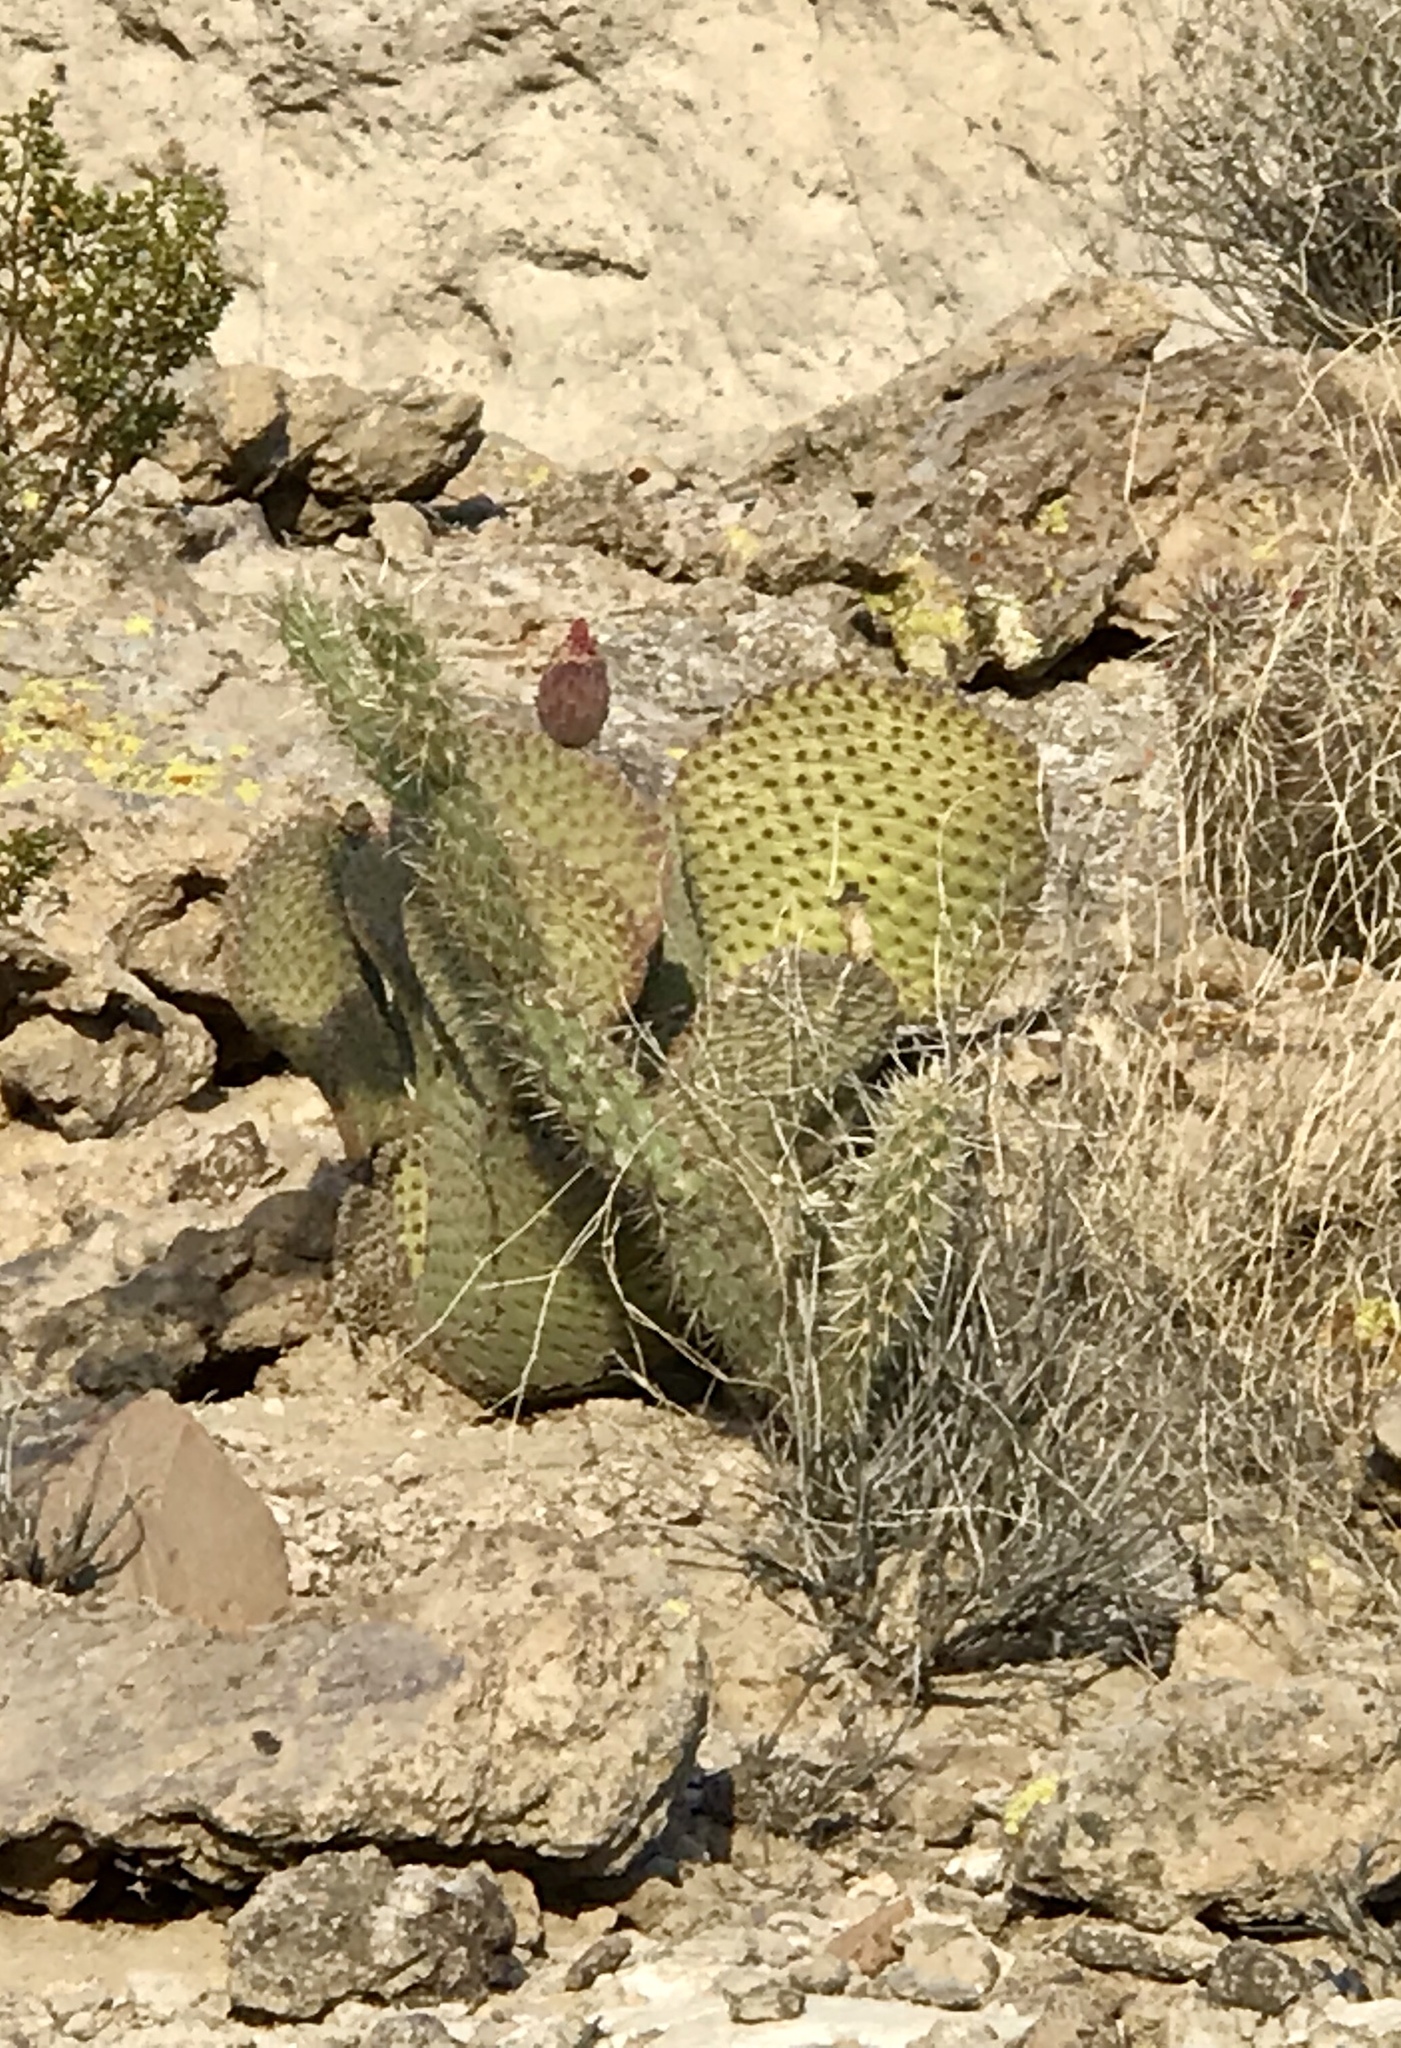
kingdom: Plantae
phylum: Tracheophyta
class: Magnoliopsida
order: Caryophyllales
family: Cactaceae
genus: Opuntia
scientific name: Opuntia basilaris
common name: Beavertail prickly-pear
